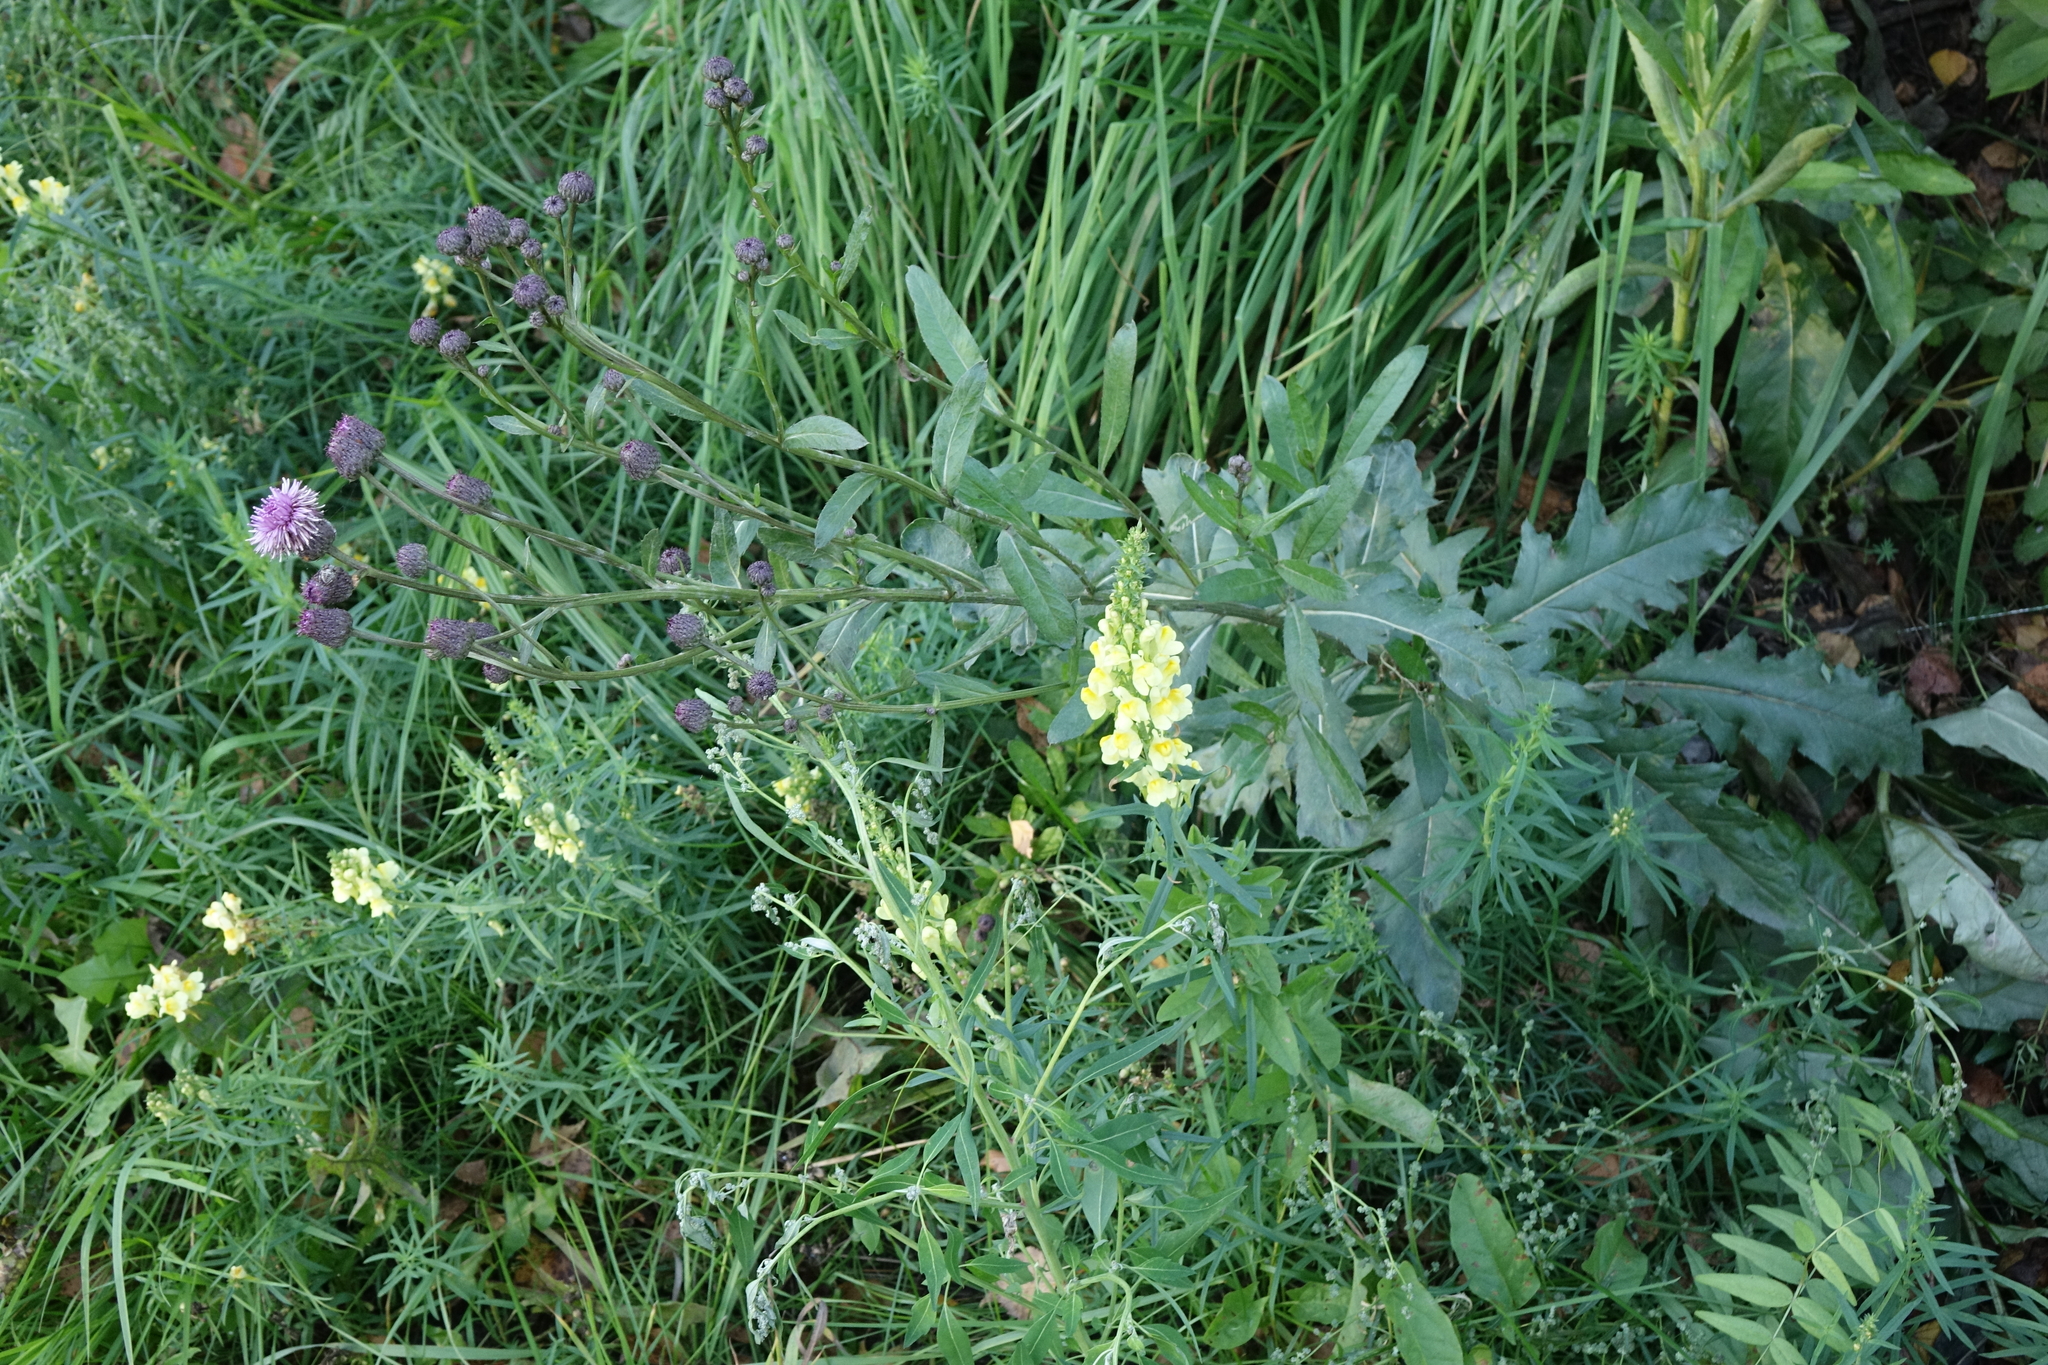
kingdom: Plantae
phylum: Tracheophyta
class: Magnoliopsida
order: Asterales
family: Asteraceae
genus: Cirsium
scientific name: Cirsium arvense
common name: Creeping thistle
